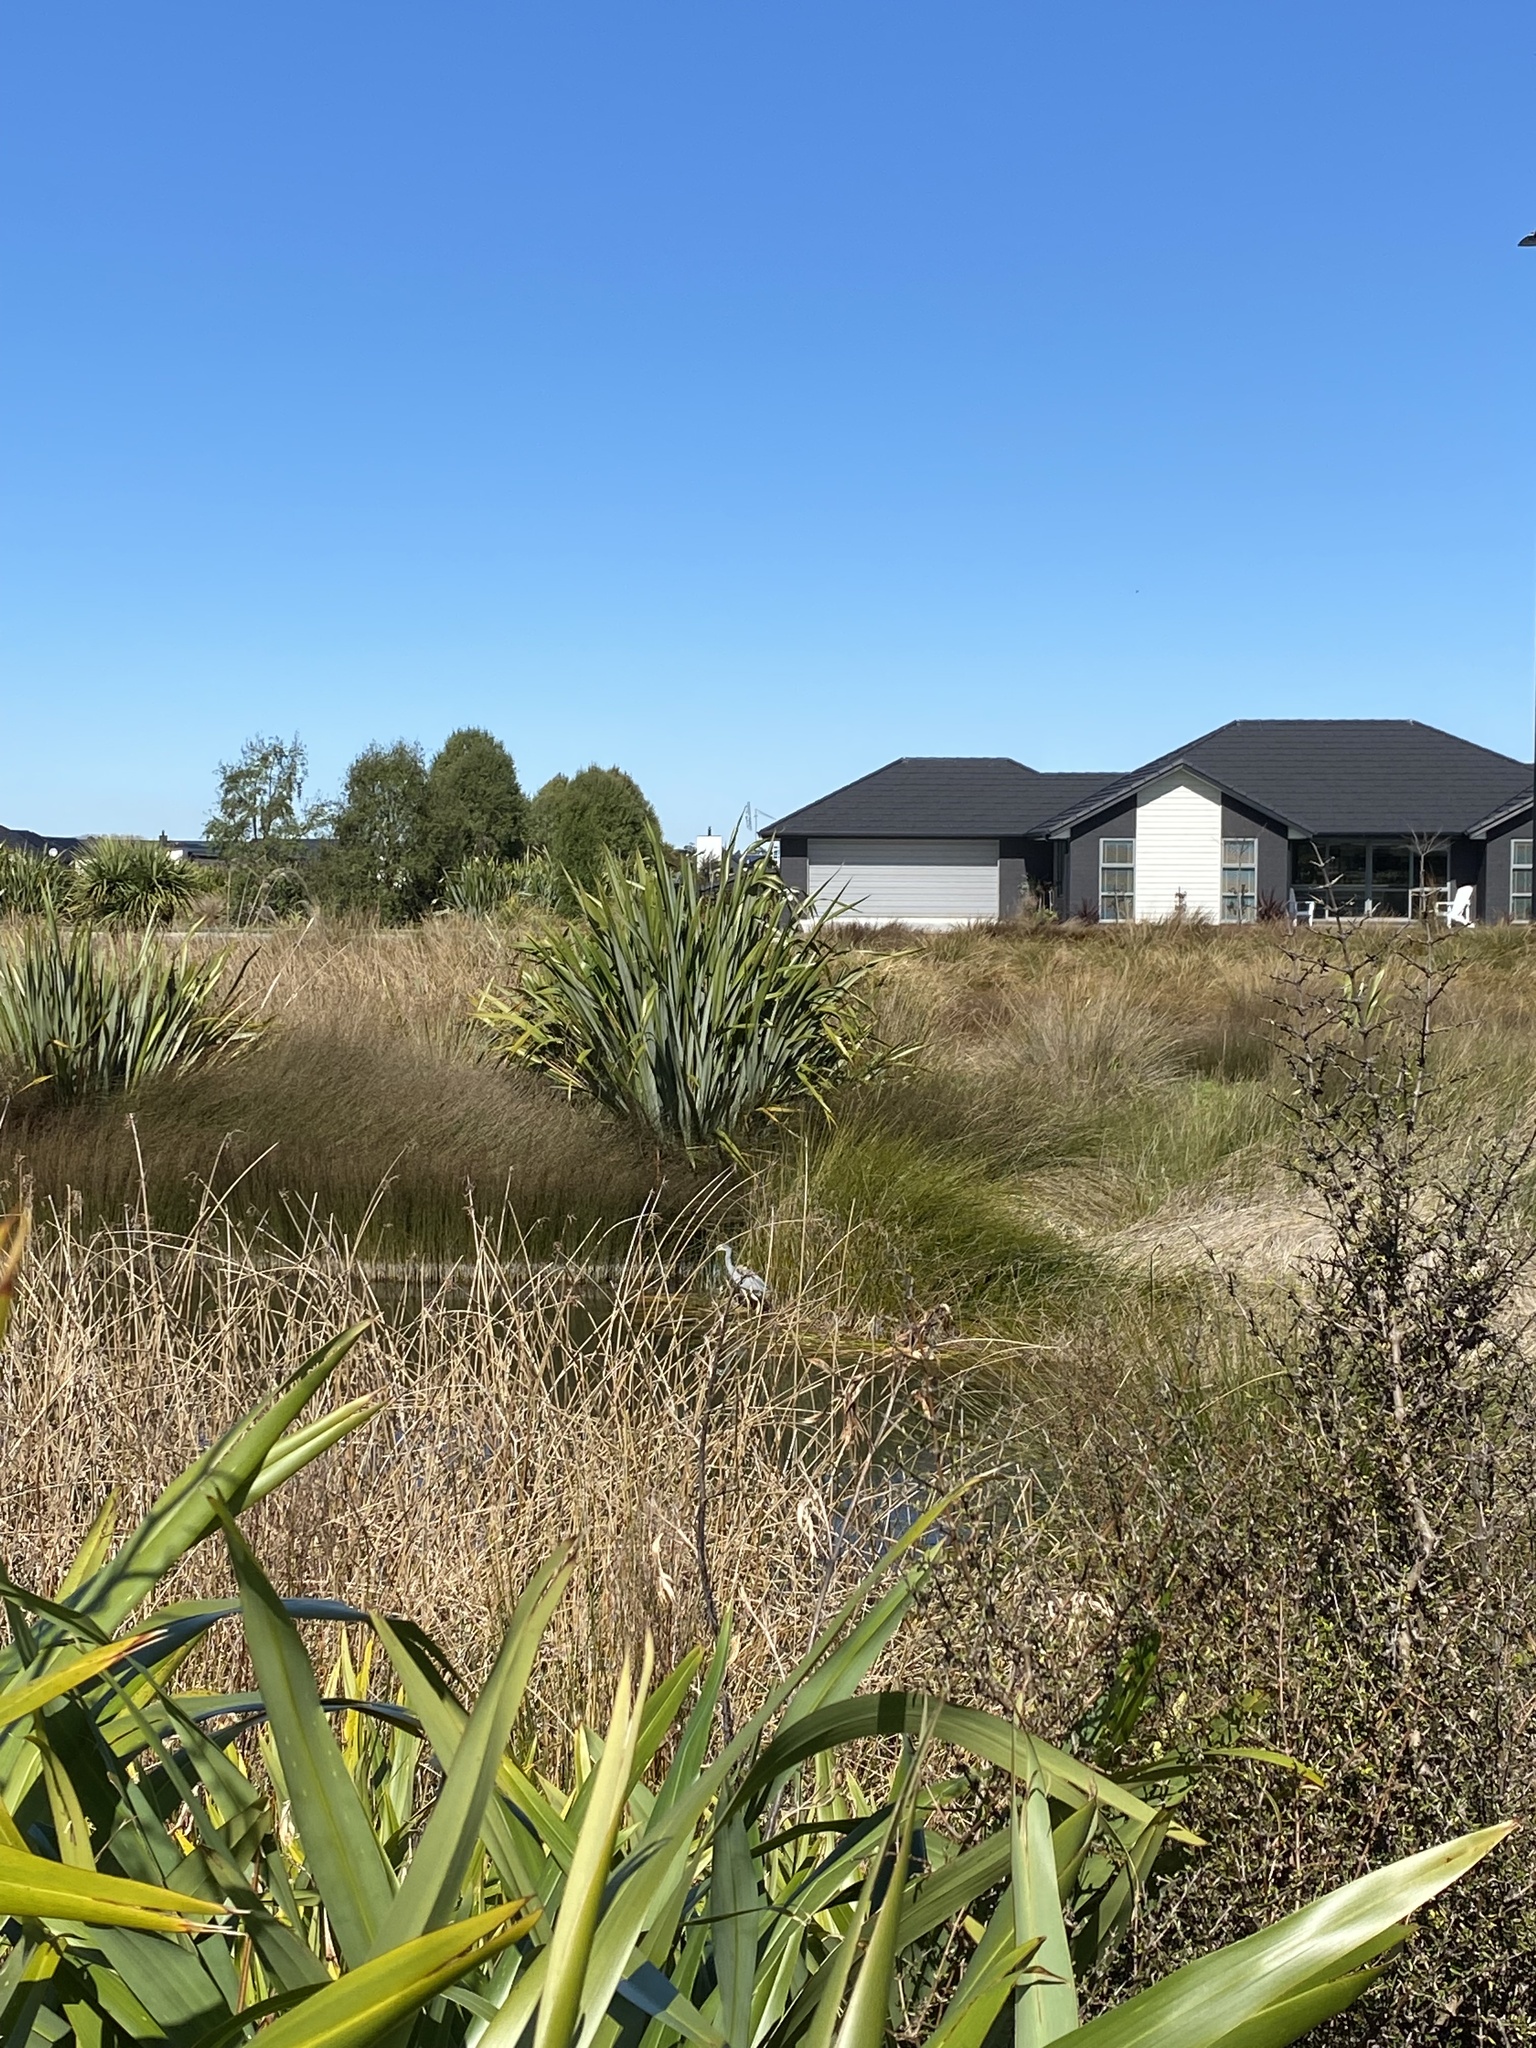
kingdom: Animalia
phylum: Chordata
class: Aves
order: Pelecaniformes
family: Ardeidae
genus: Egretta
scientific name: Egretta novaehollandiae
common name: White-faced heron
